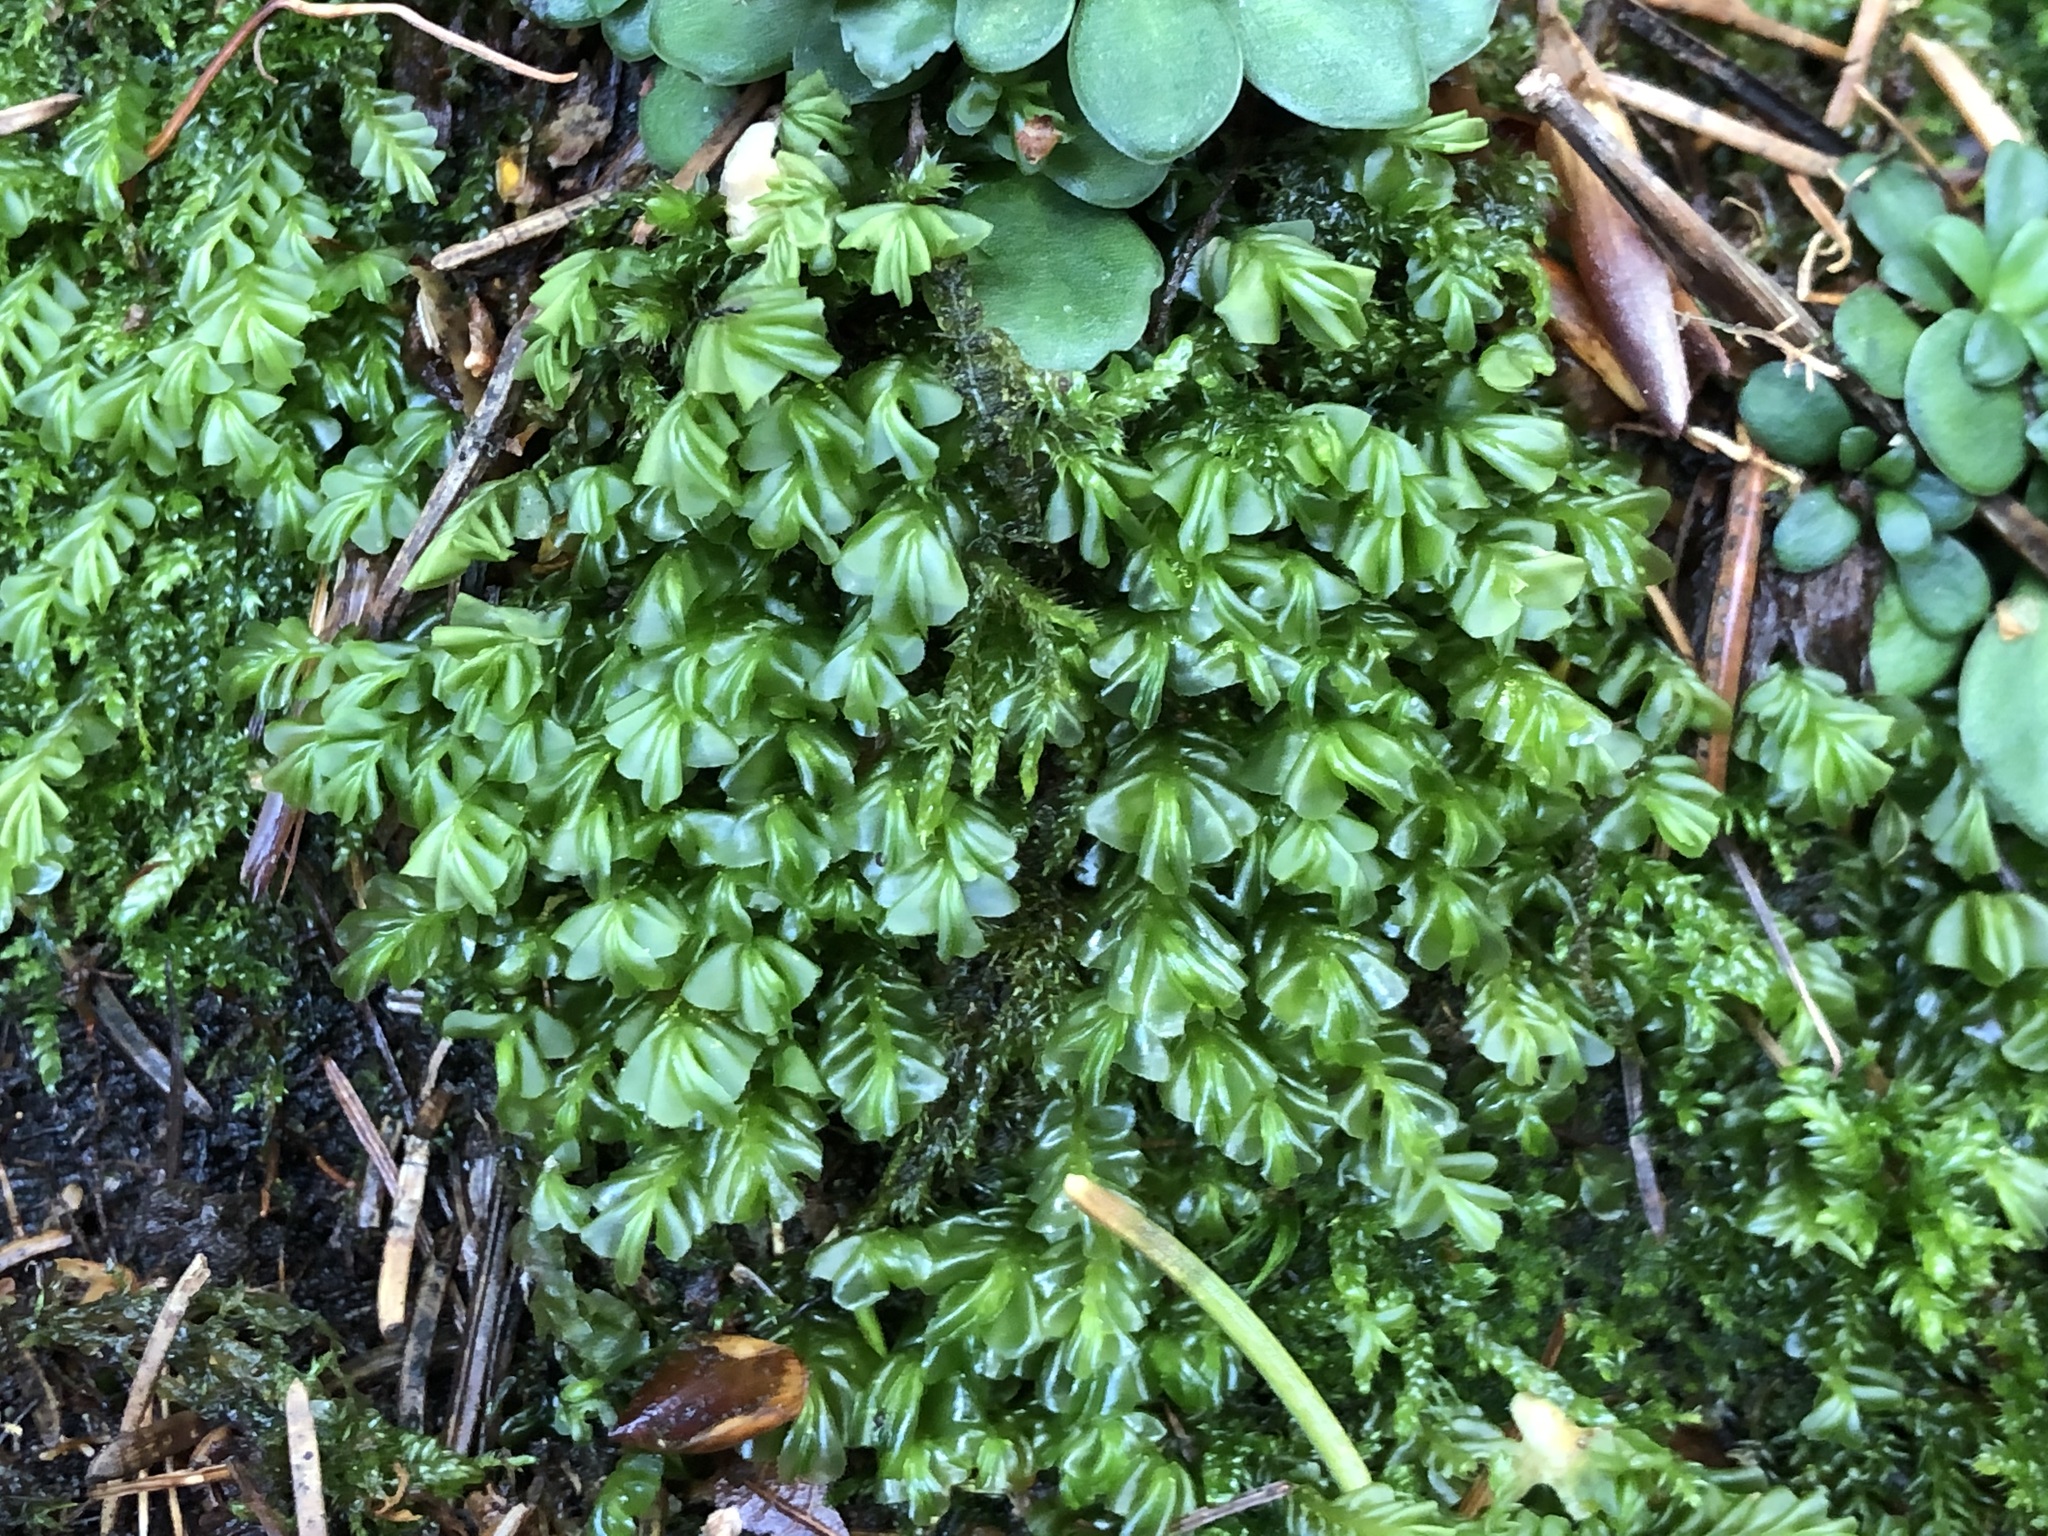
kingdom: Plantae
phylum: Marchantiophyta
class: Jungermanniopsida
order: Jungermanniales
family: Plagiochilaceae
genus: Plagiochila
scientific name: Plagiochila porelloides
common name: Lesser featherwort
